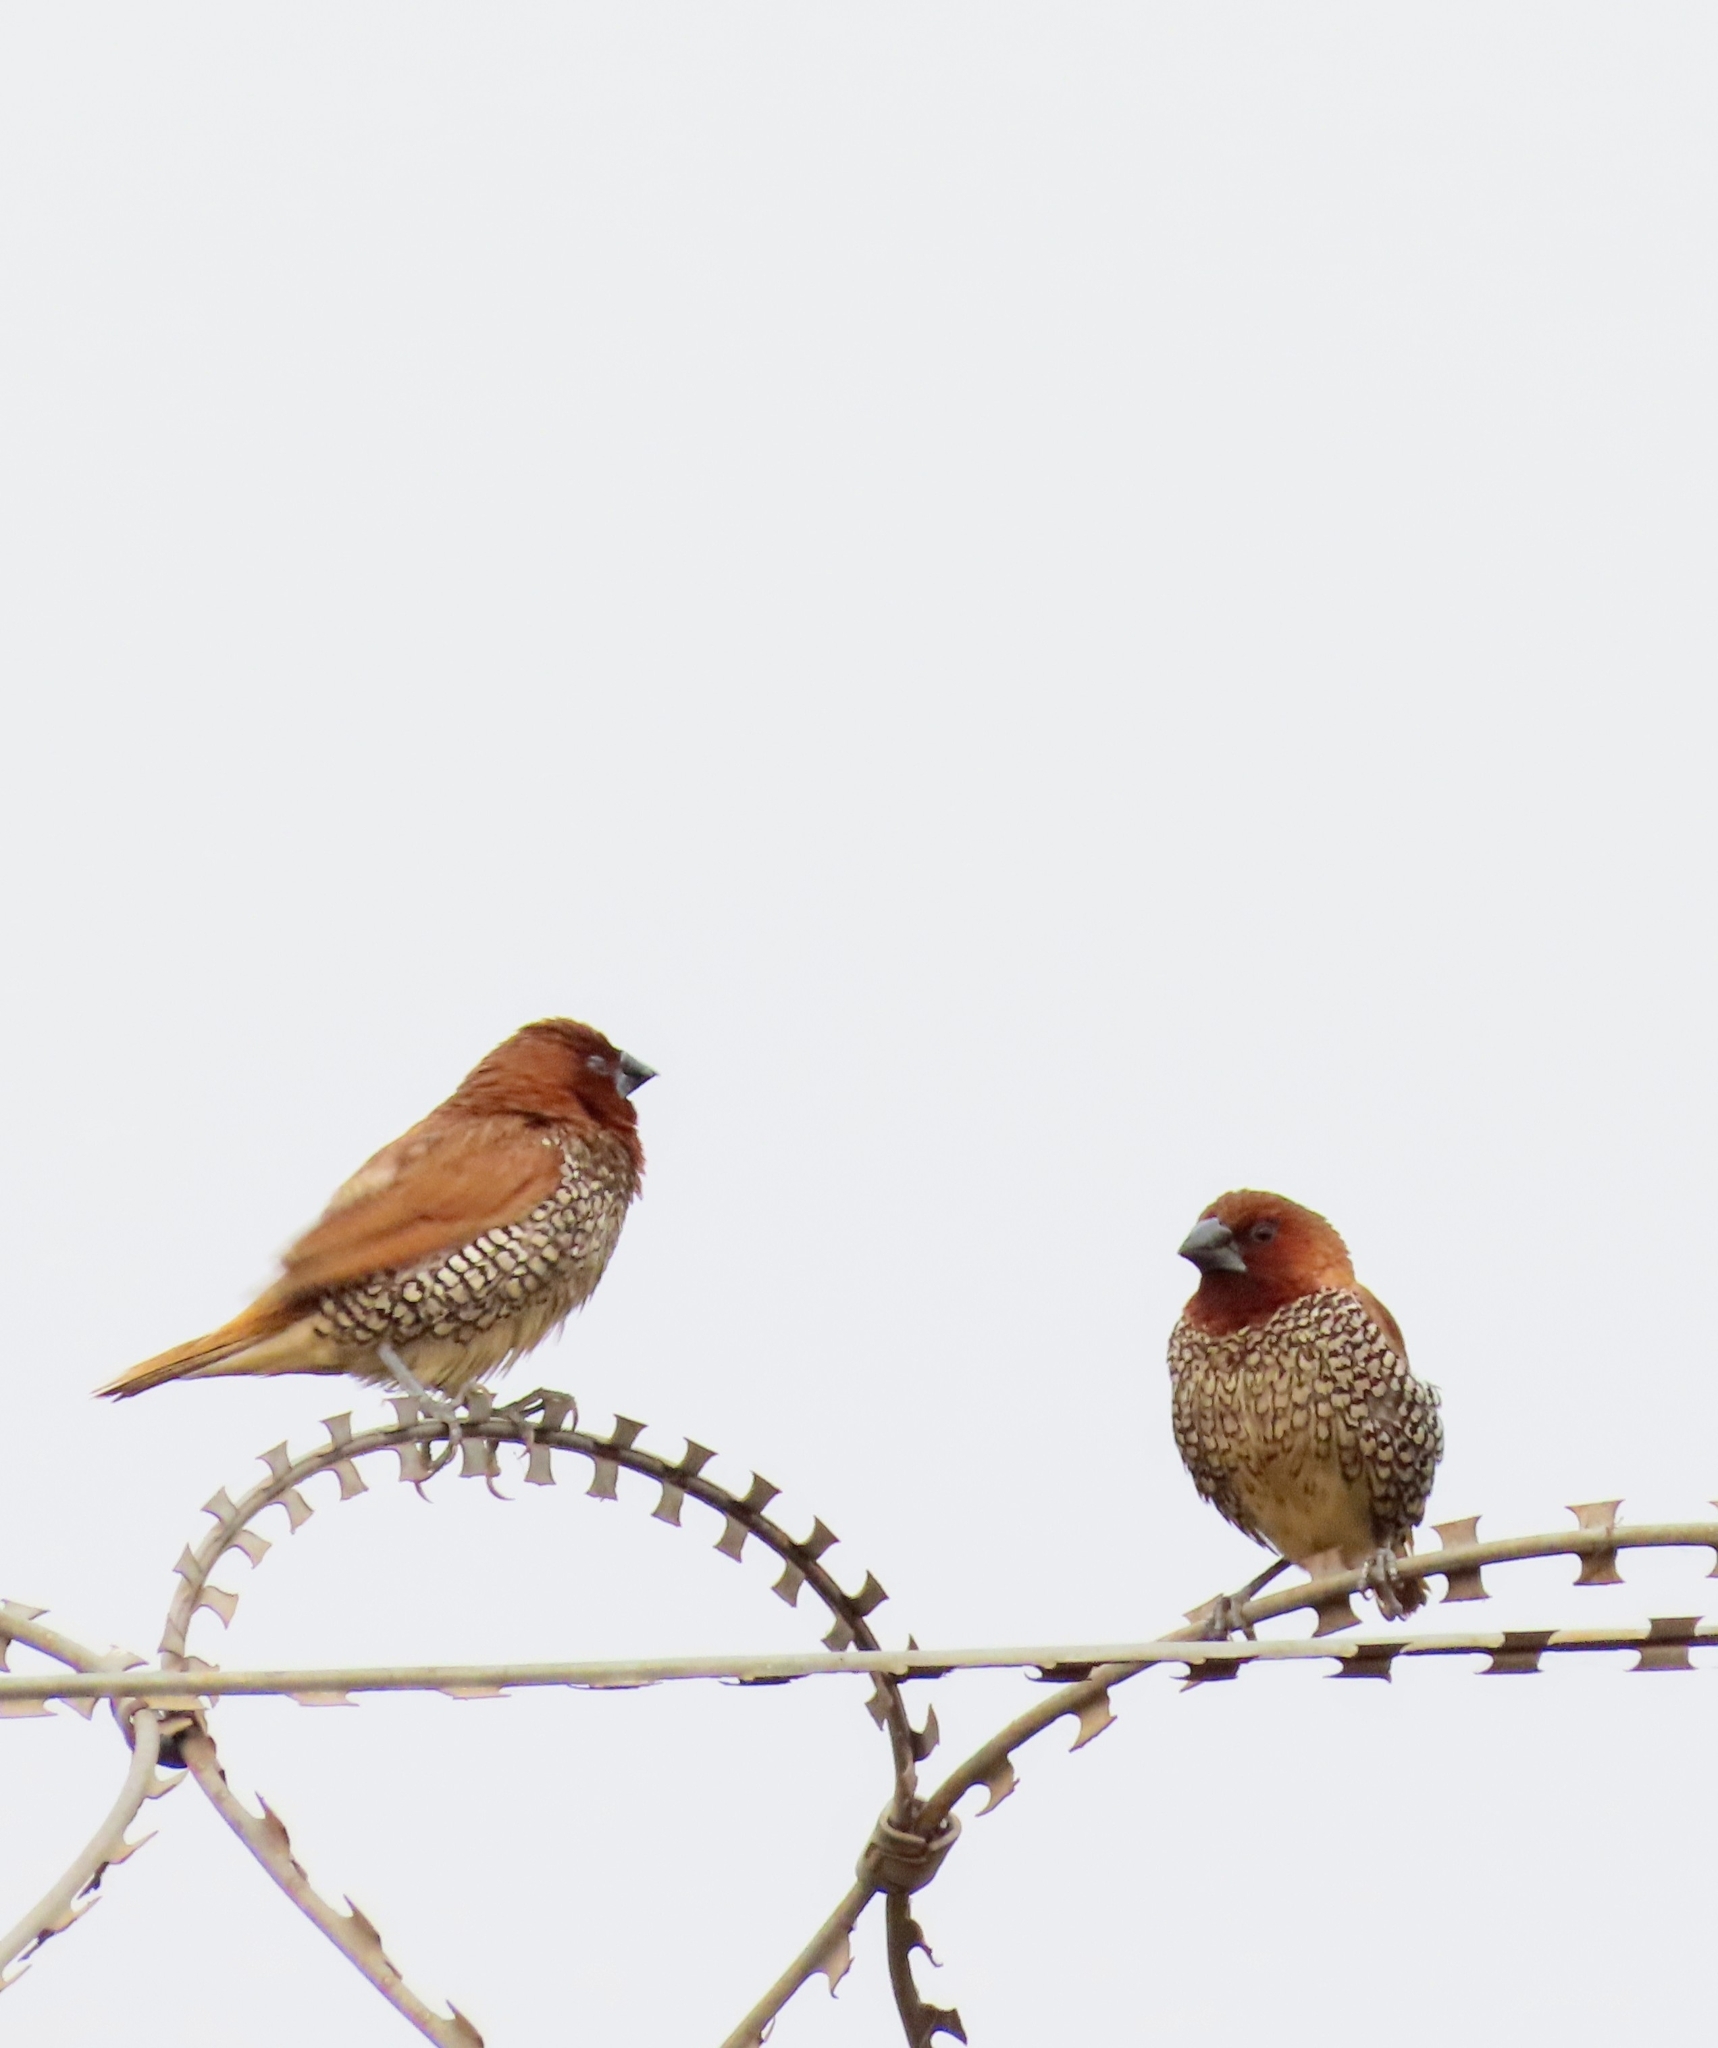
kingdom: Animalia
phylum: Chordata
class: Aves
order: Passeriformes
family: Estrildidae
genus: Lonchura
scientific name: Lonchura punctulata
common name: Scaly-breasted munia
